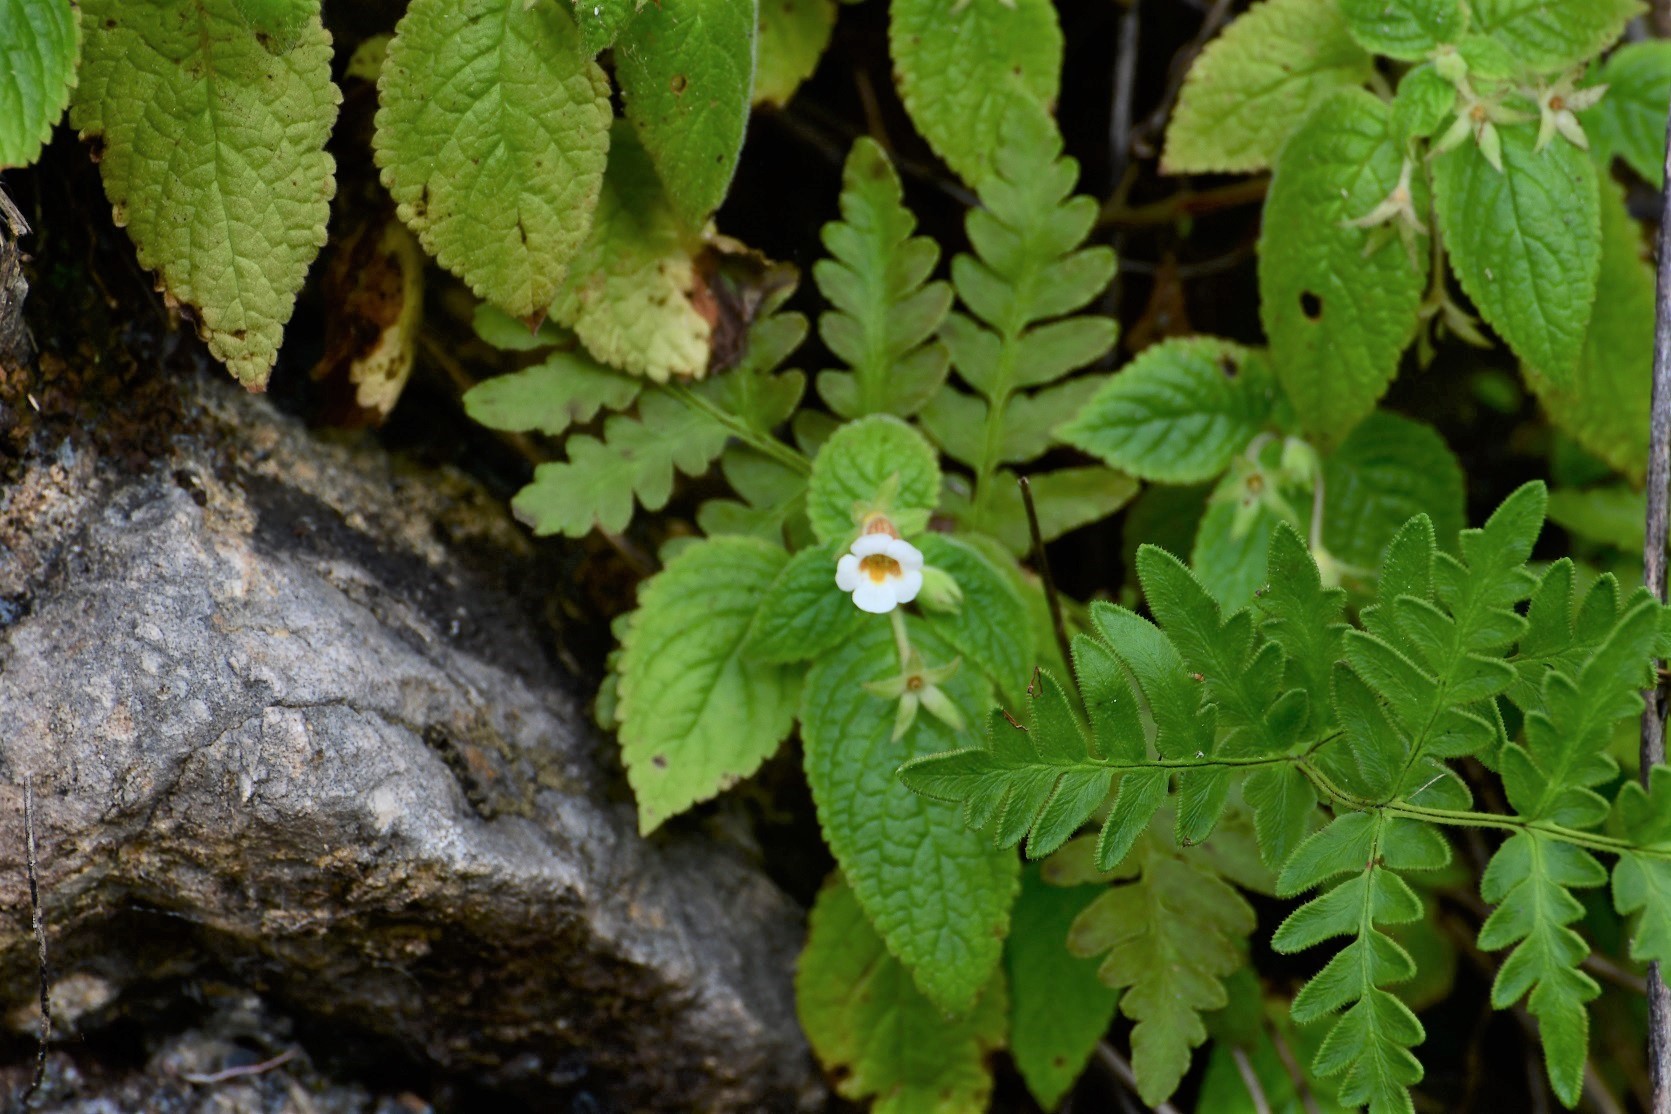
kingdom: Plantae
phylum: Tracheophyta
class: Magnoliopsida
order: Lamiales
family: Gesneriaceae
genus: Achimenes
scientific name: Achimenes misera
